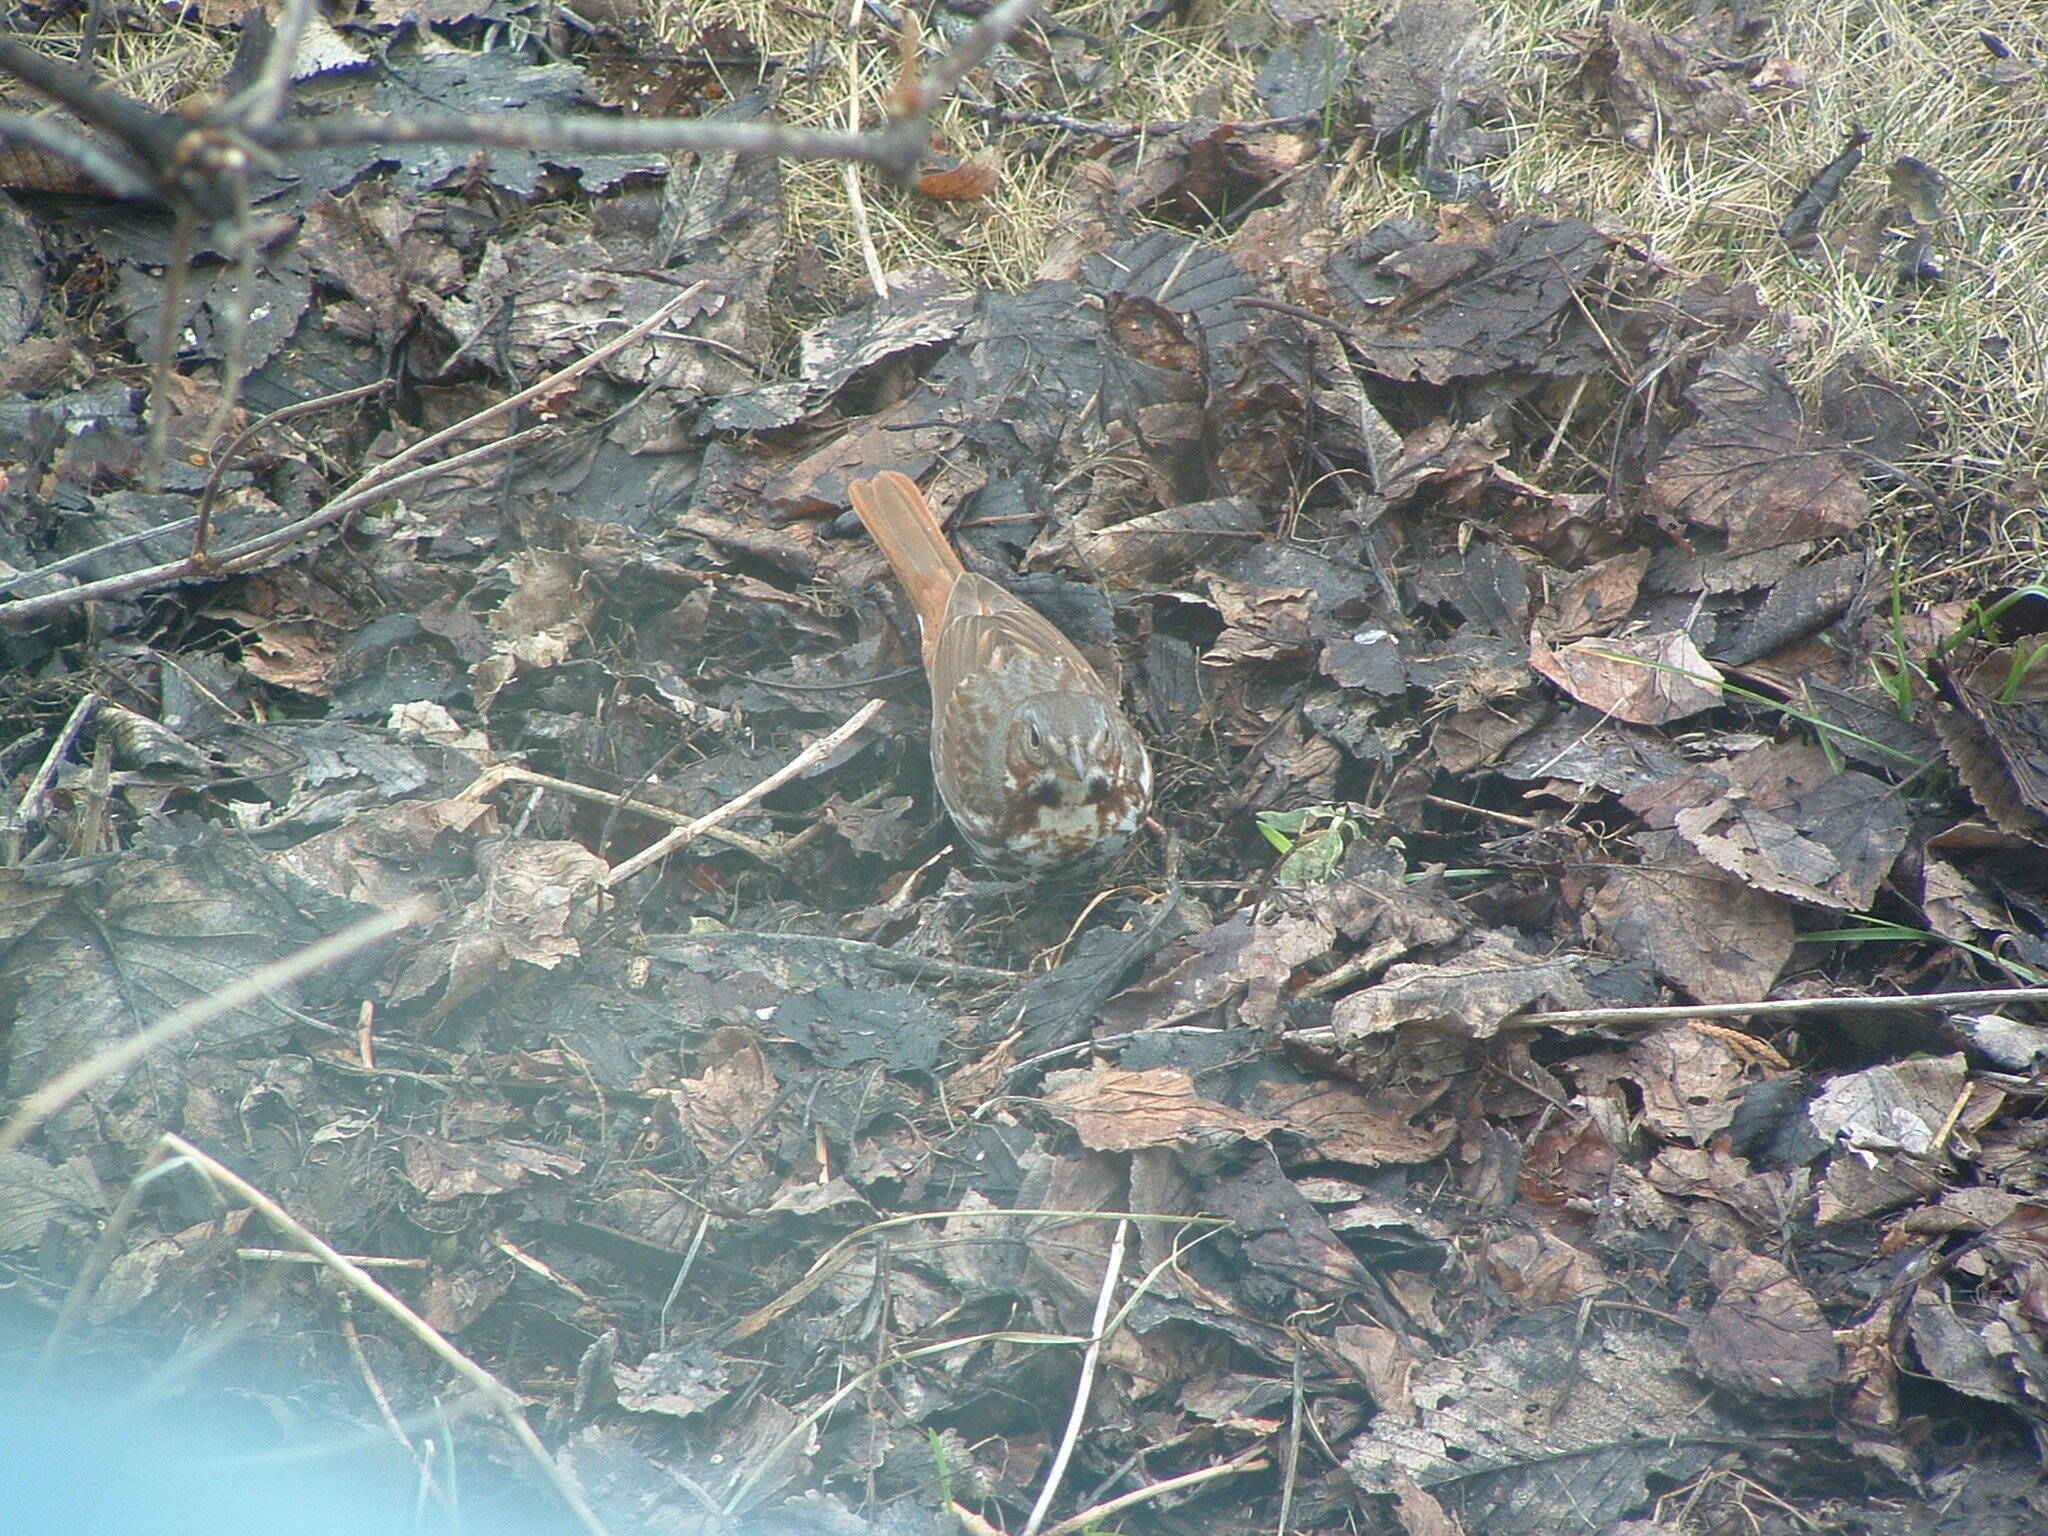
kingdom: Animalia
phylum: Chordata
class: Aves
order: Passeriformes
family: Passerellidae
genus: Passerella
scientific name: Passerella iliaca
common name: Fox sparrow
